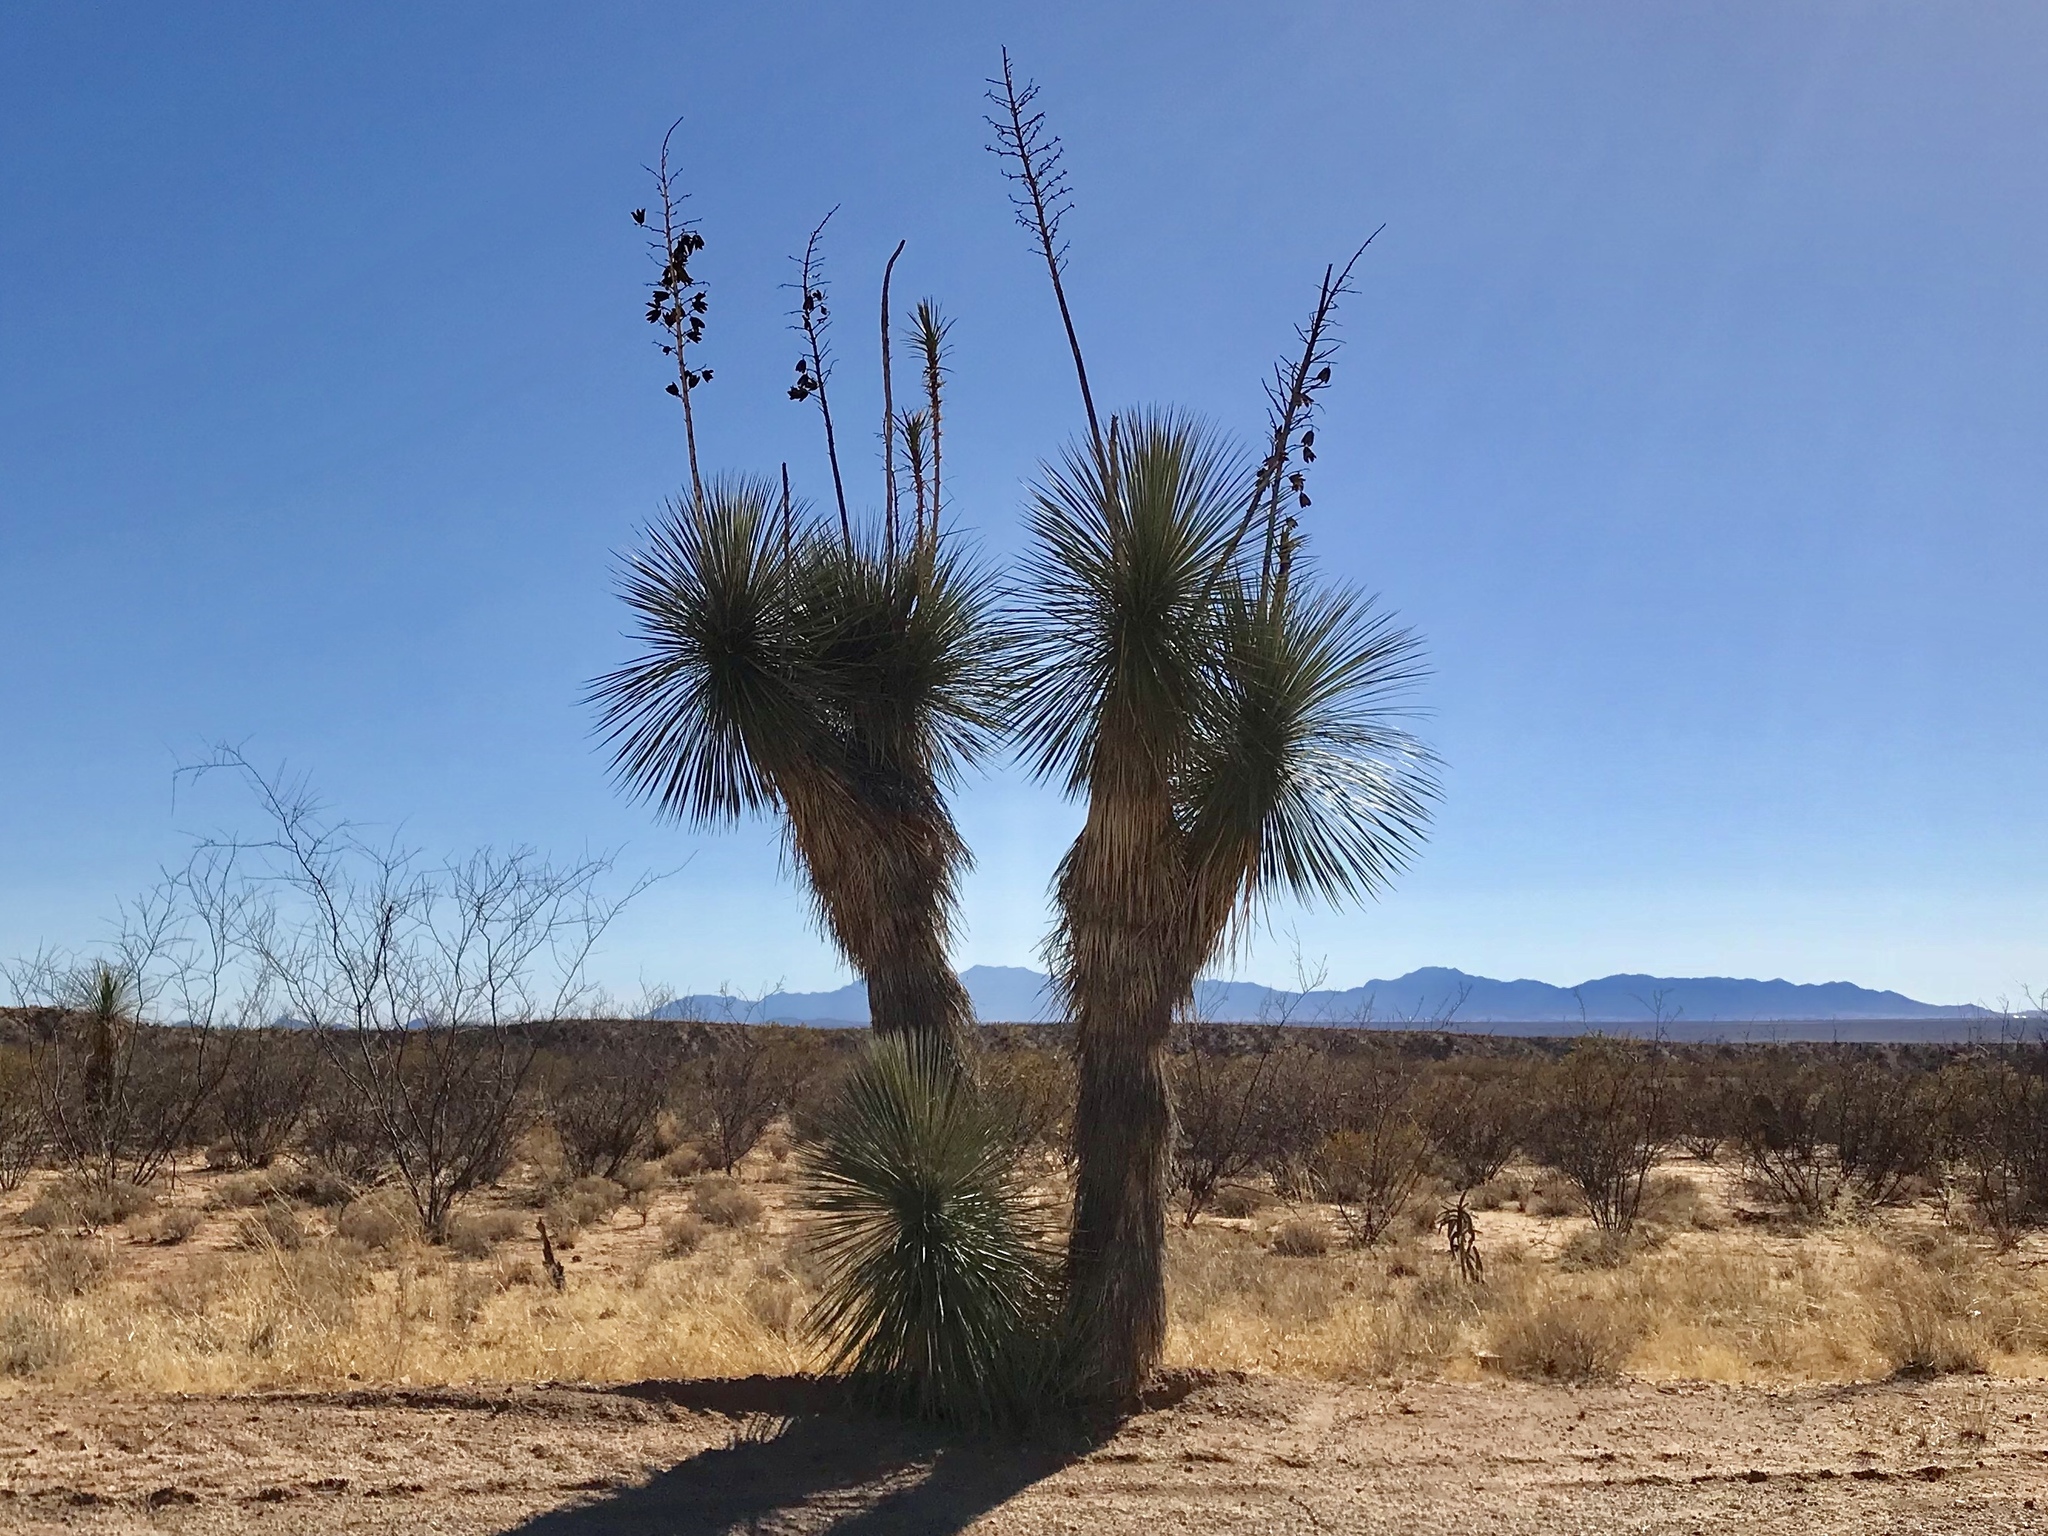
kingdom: Plantae
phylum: Tracheophyta
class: Liliopsida
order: Asparagales
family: Asparagaceae
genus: Yucca
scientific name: Yucca elata
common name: Palmella
